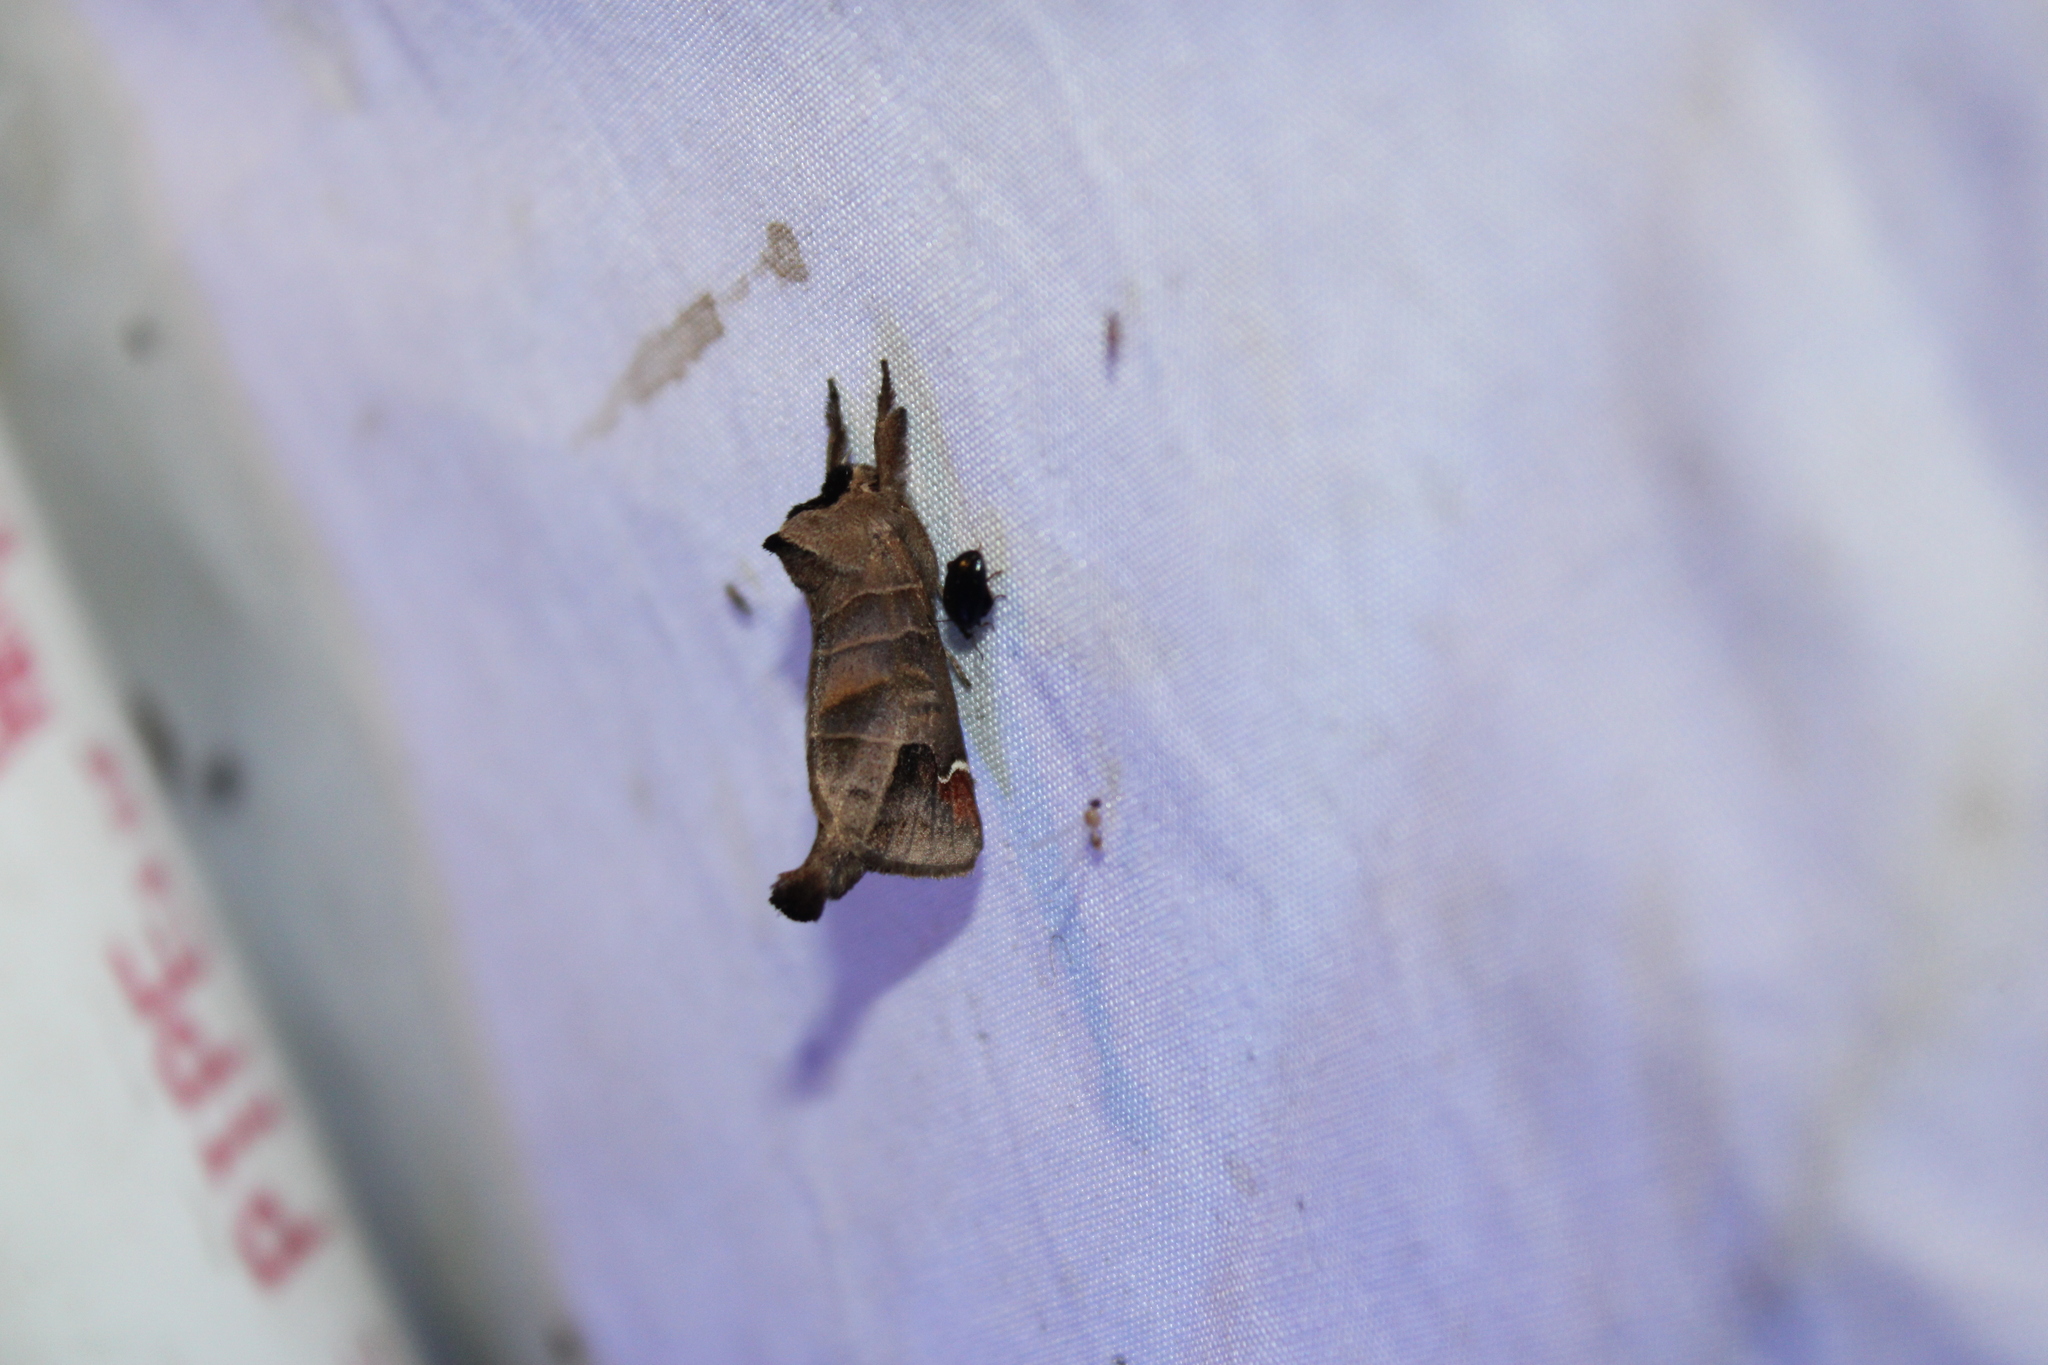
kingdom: Animalia
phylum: Arthropoda
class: Insecta
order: Lepidoptera
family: Notodontidae
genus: Clostera
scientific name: Clostera albosigma
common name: Sigmoid prominent
